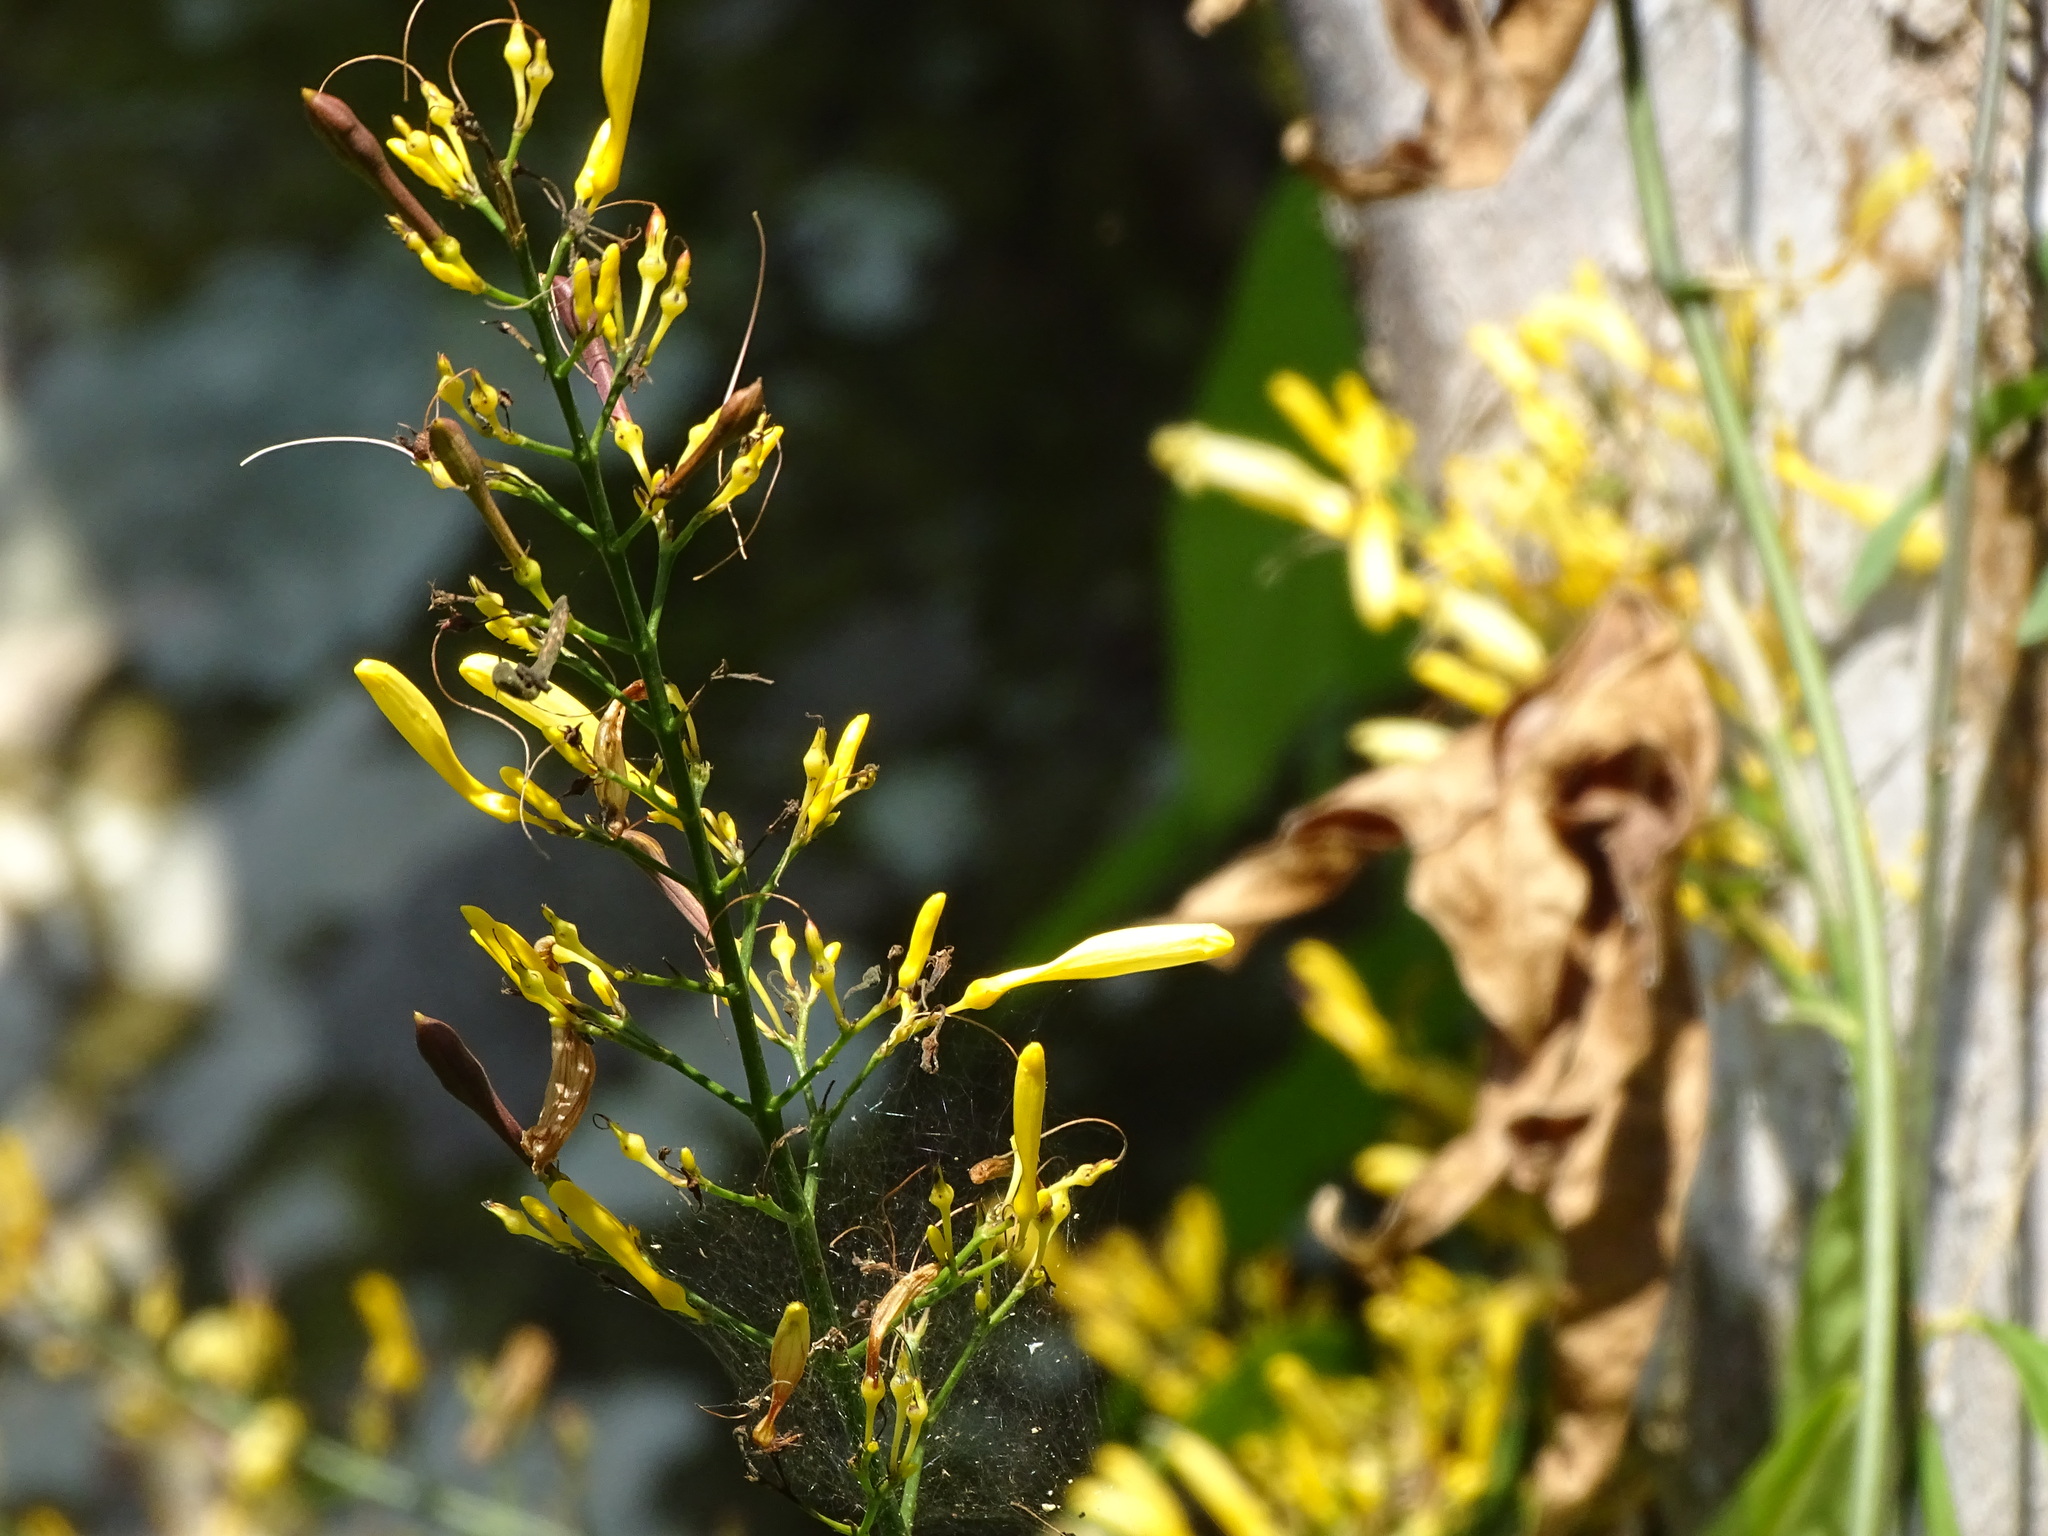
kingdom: Plantae
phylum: Tracheophyta
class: Magnoliopsida
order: Lamiales
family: Acanthaceae
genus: Odontonema
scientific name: Odontonema glabrum
